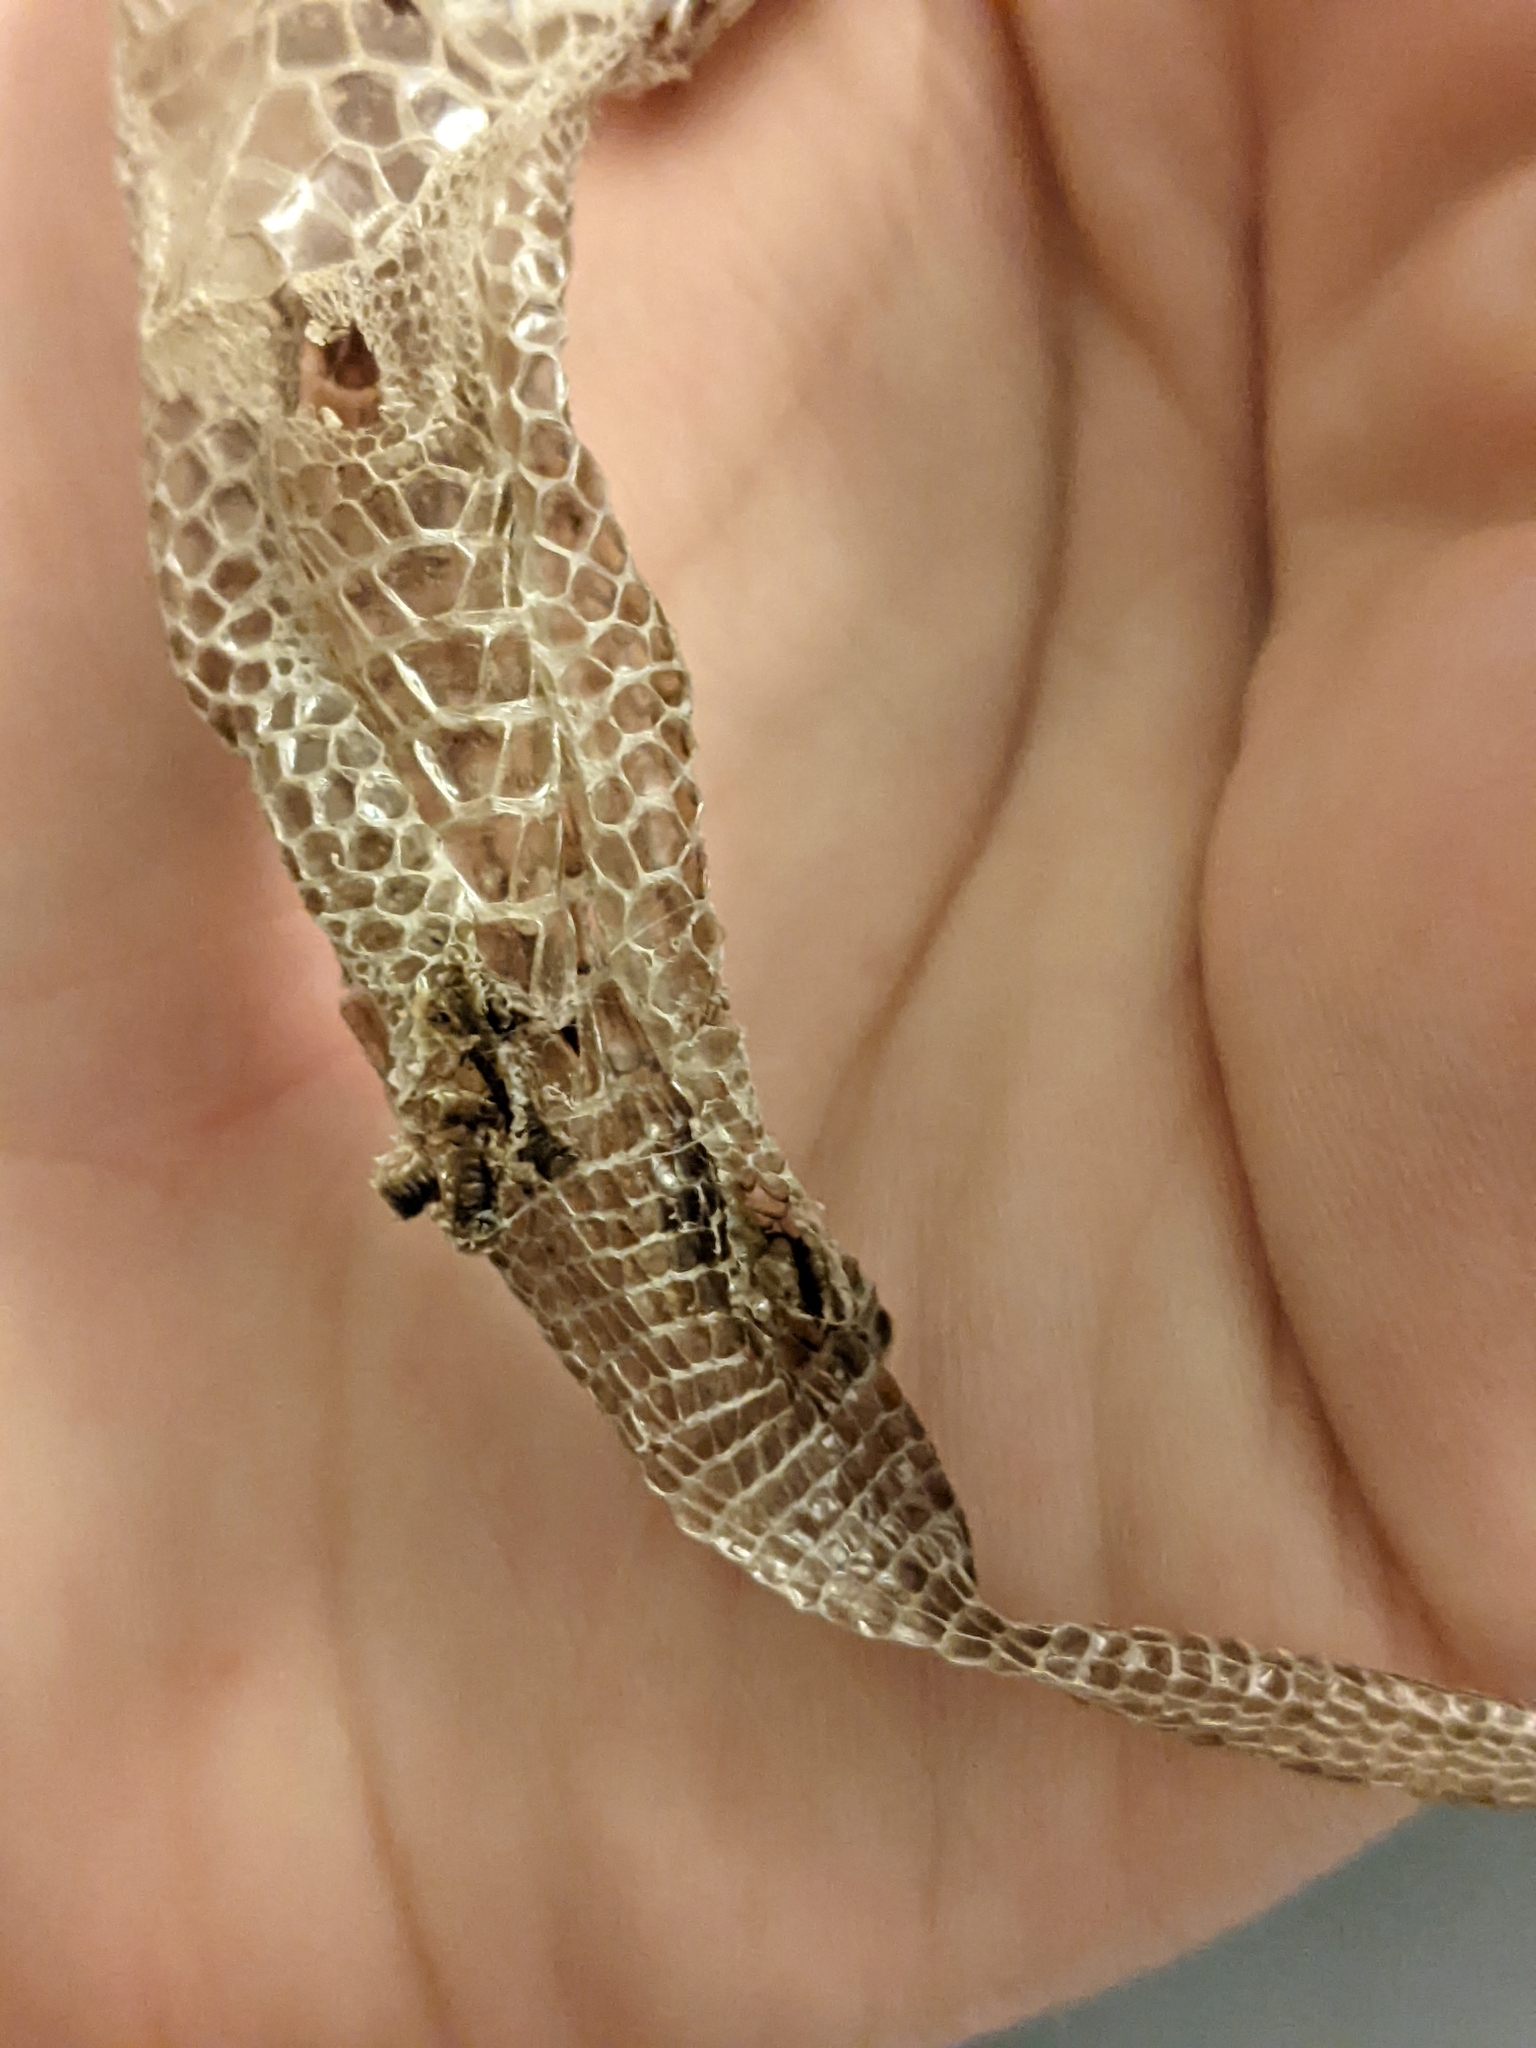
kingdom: Animalia
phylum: Chordata
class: Squamata
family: Anguidae
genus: Elgaria
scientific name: Elgaria multicarinata
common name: Southern alligator lizard
